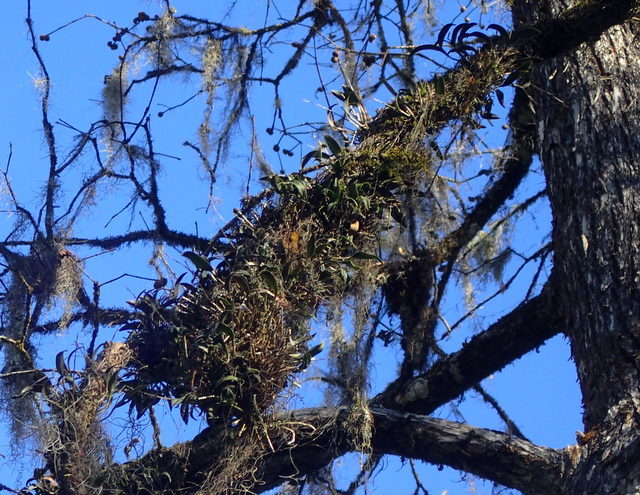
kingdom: Plantae
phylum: Tracheophyta
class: Liliopsida
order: Asparagales
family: Orchidaceae
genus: Epidendrum
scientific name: Epidendrum conopseum
